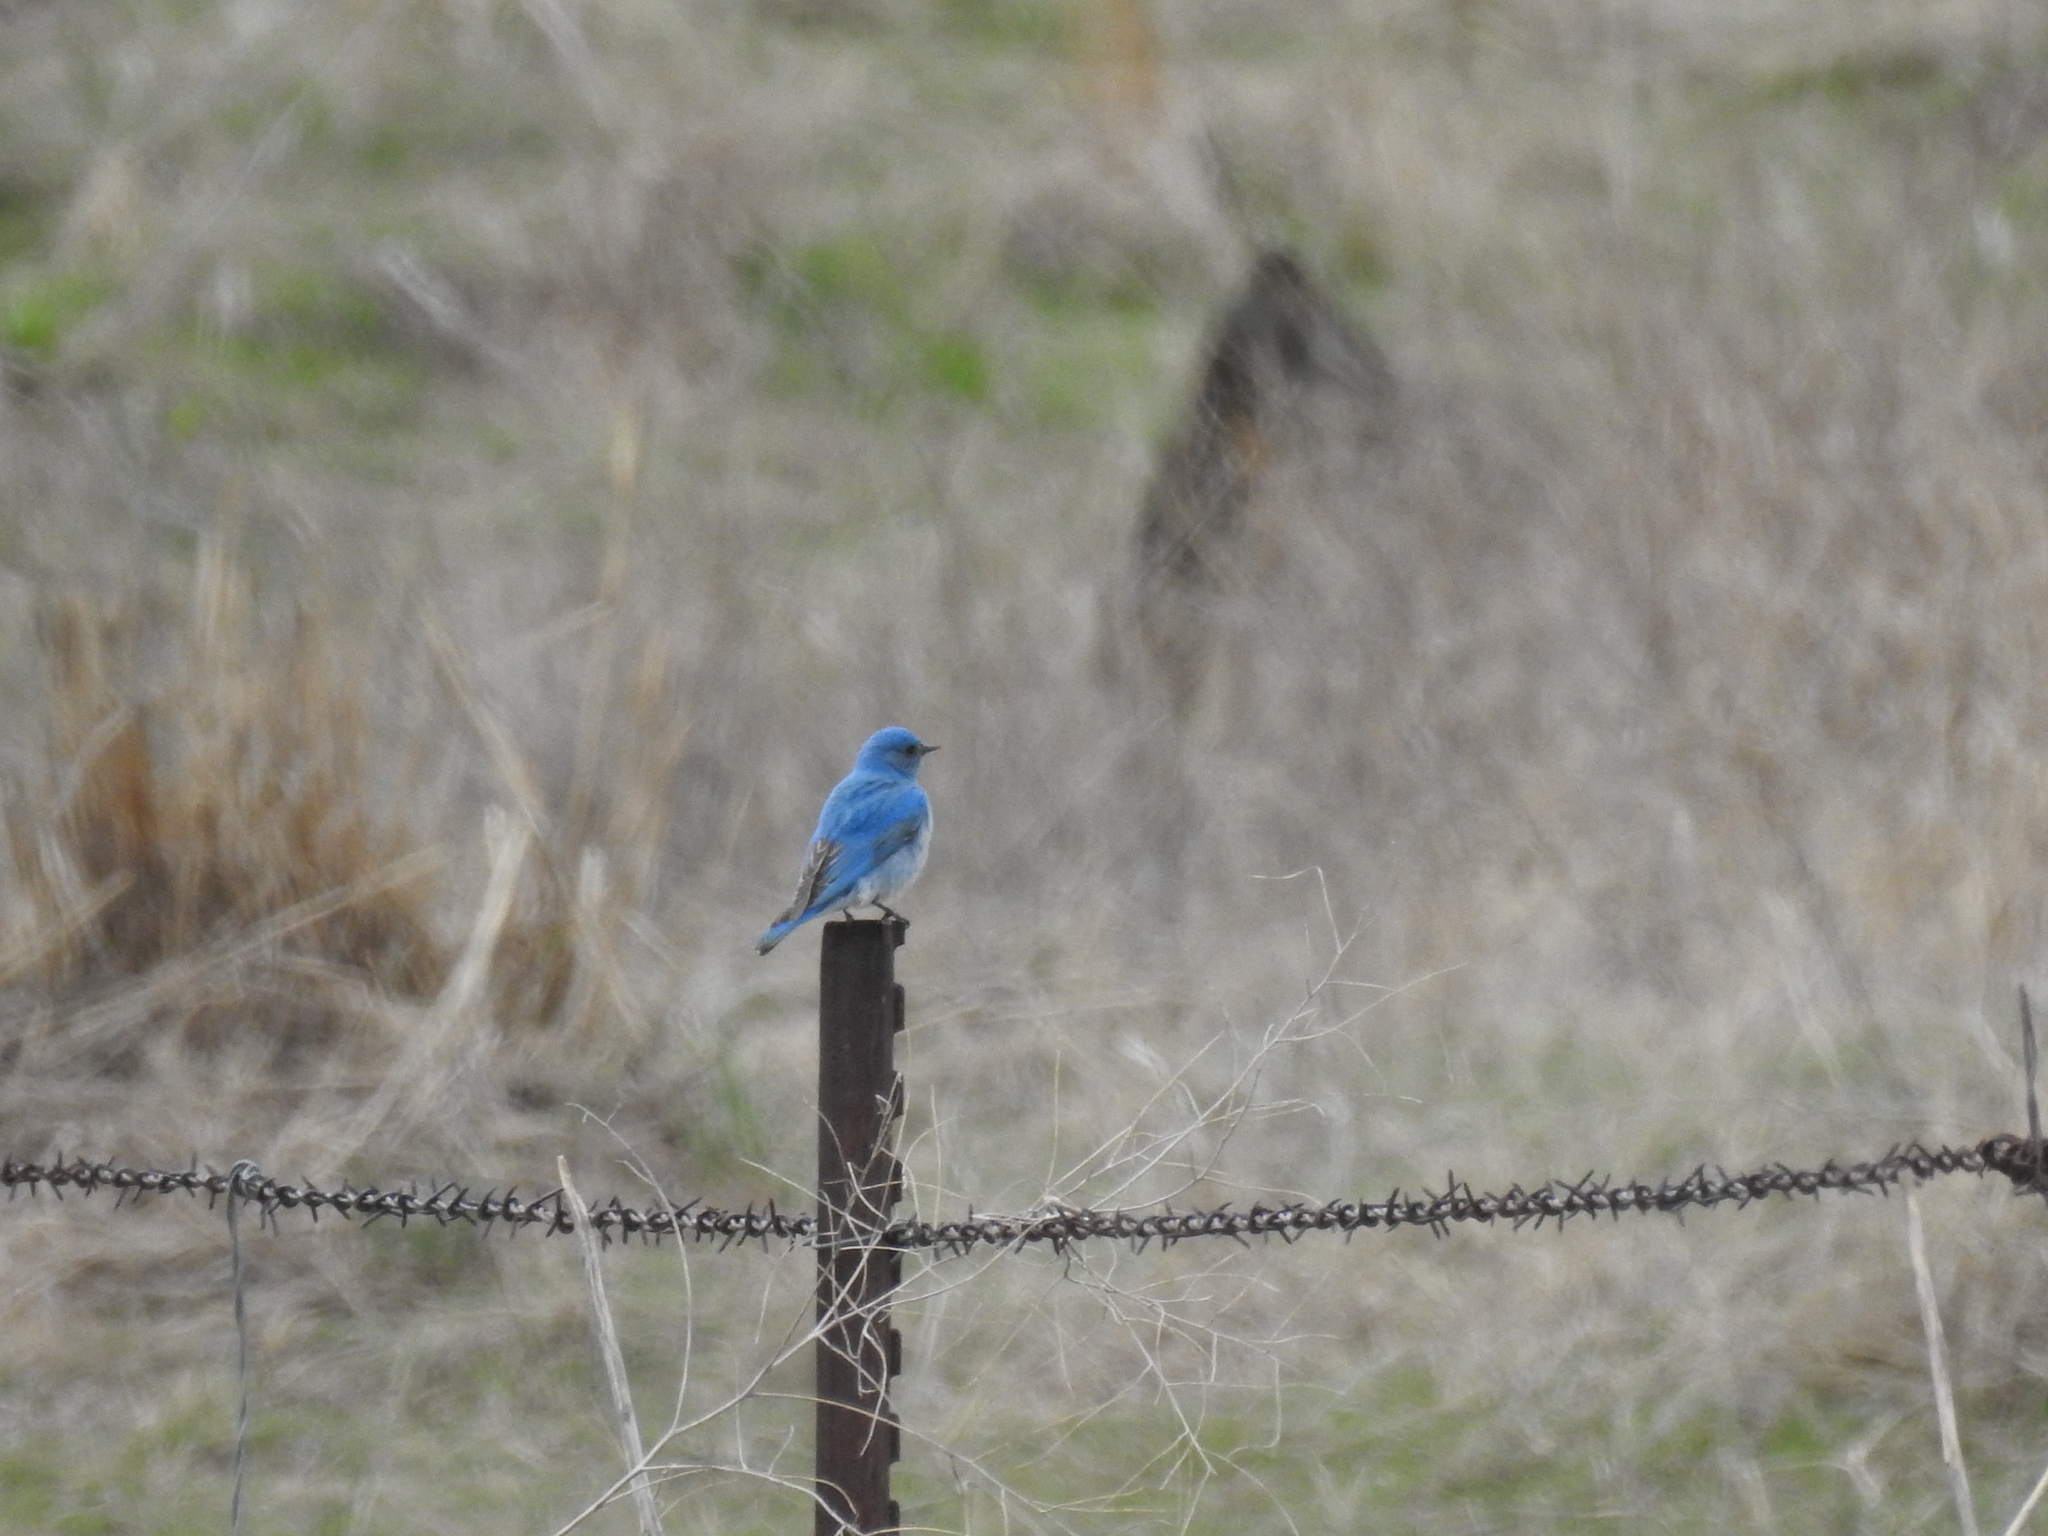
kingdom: Animalia
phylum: Chordata
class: Aves
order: Passeriformes
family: Turdidae
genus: Sialia
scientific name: Sialia currucoides
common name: Mountain bluebird
